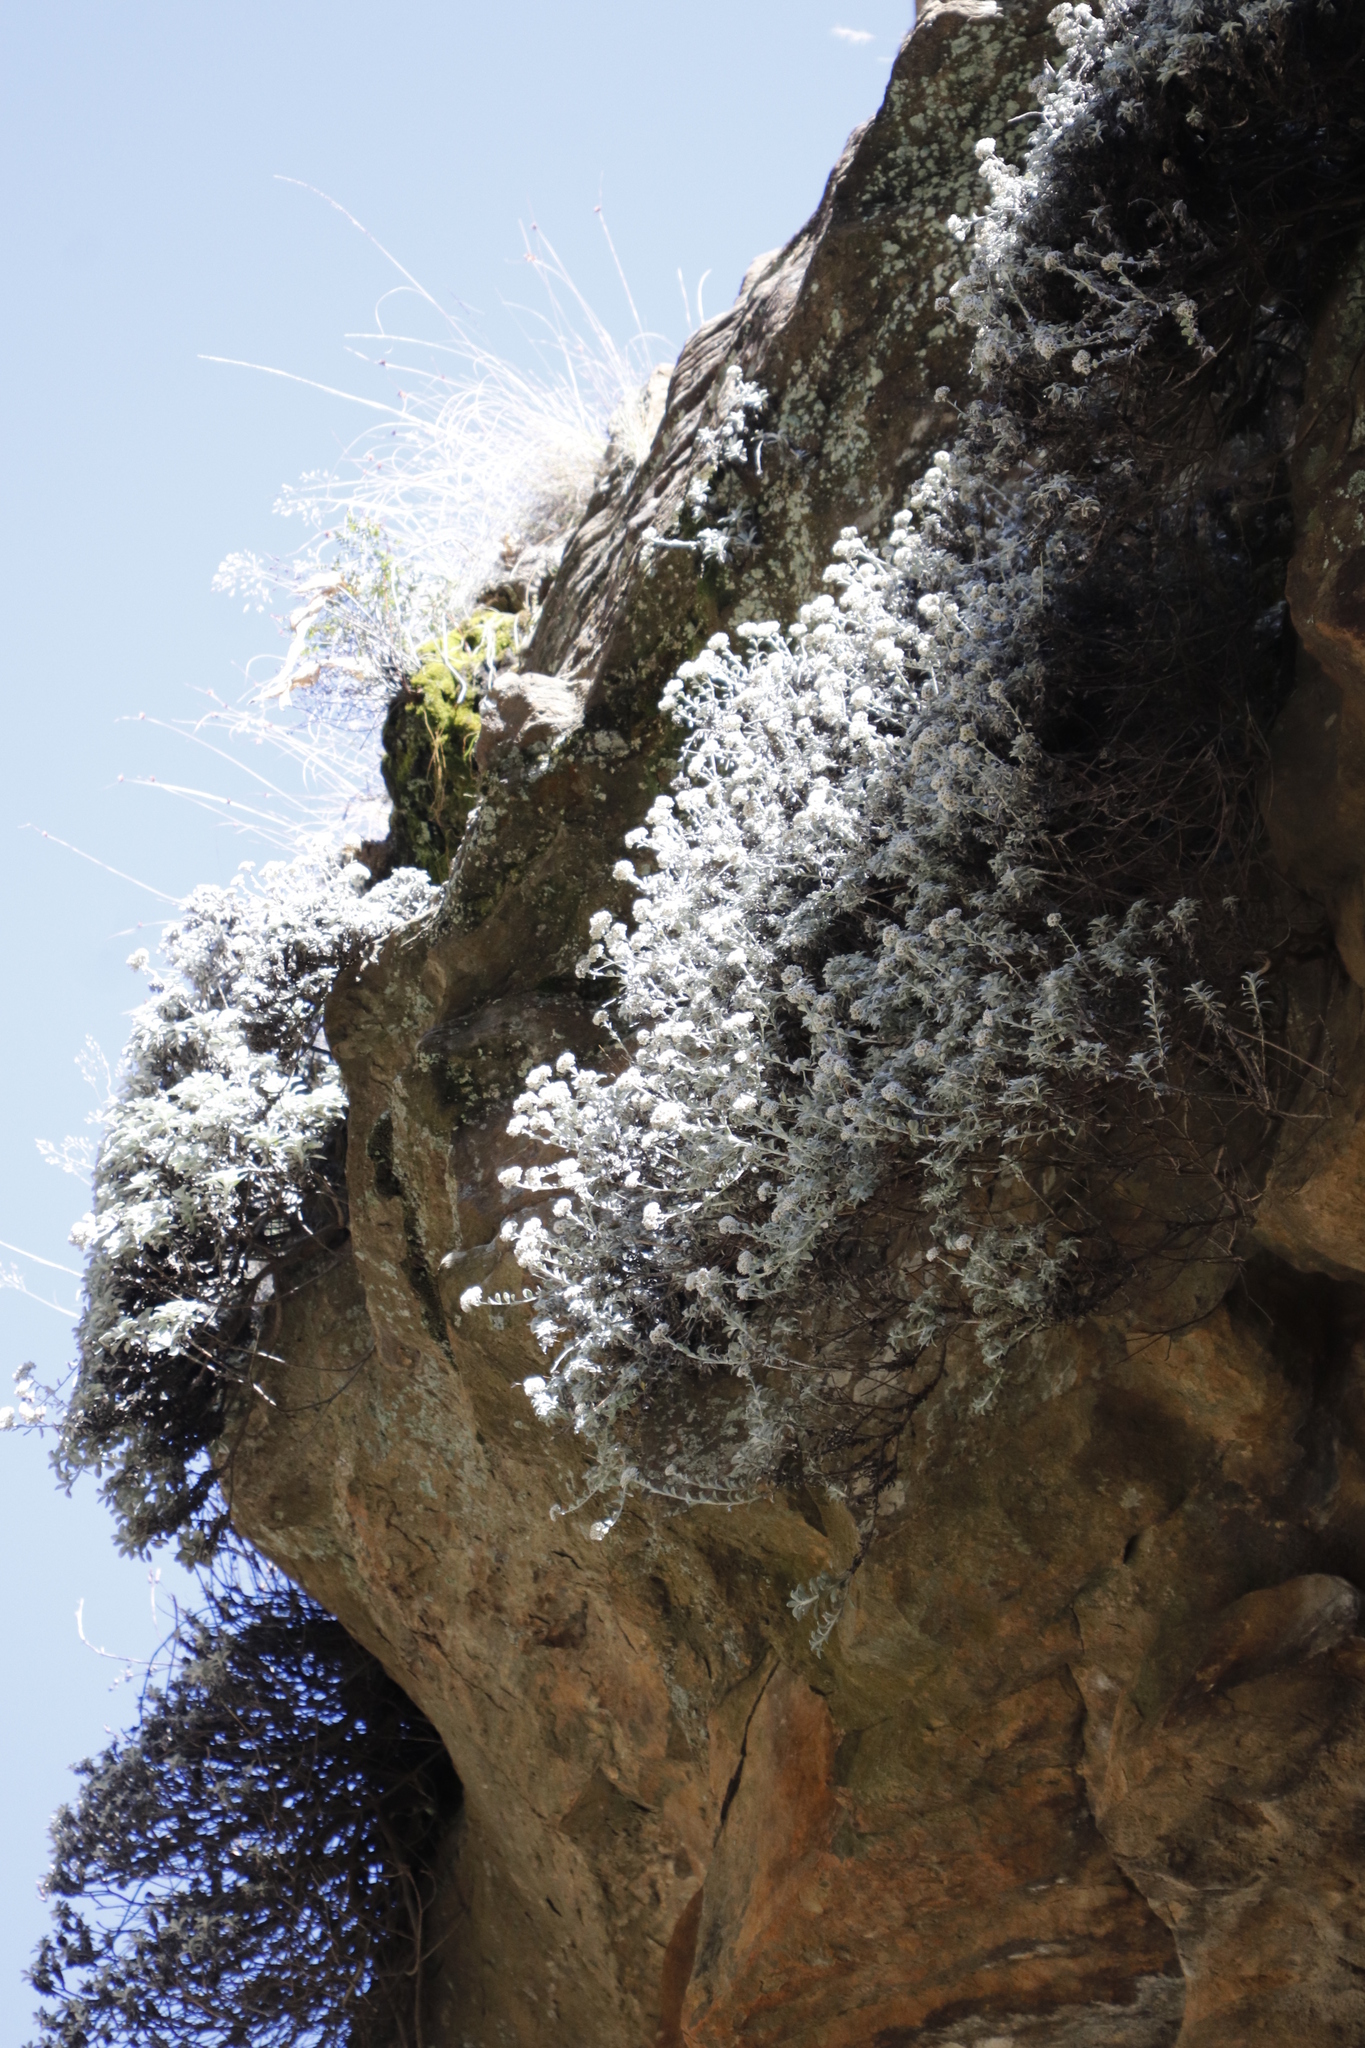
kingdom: Plantae
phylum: Tracheophyta
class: Magnoliopsida
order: Asterales
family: Asteraceae
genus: Helichrysum
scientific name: Helichrysum sutherlandii
